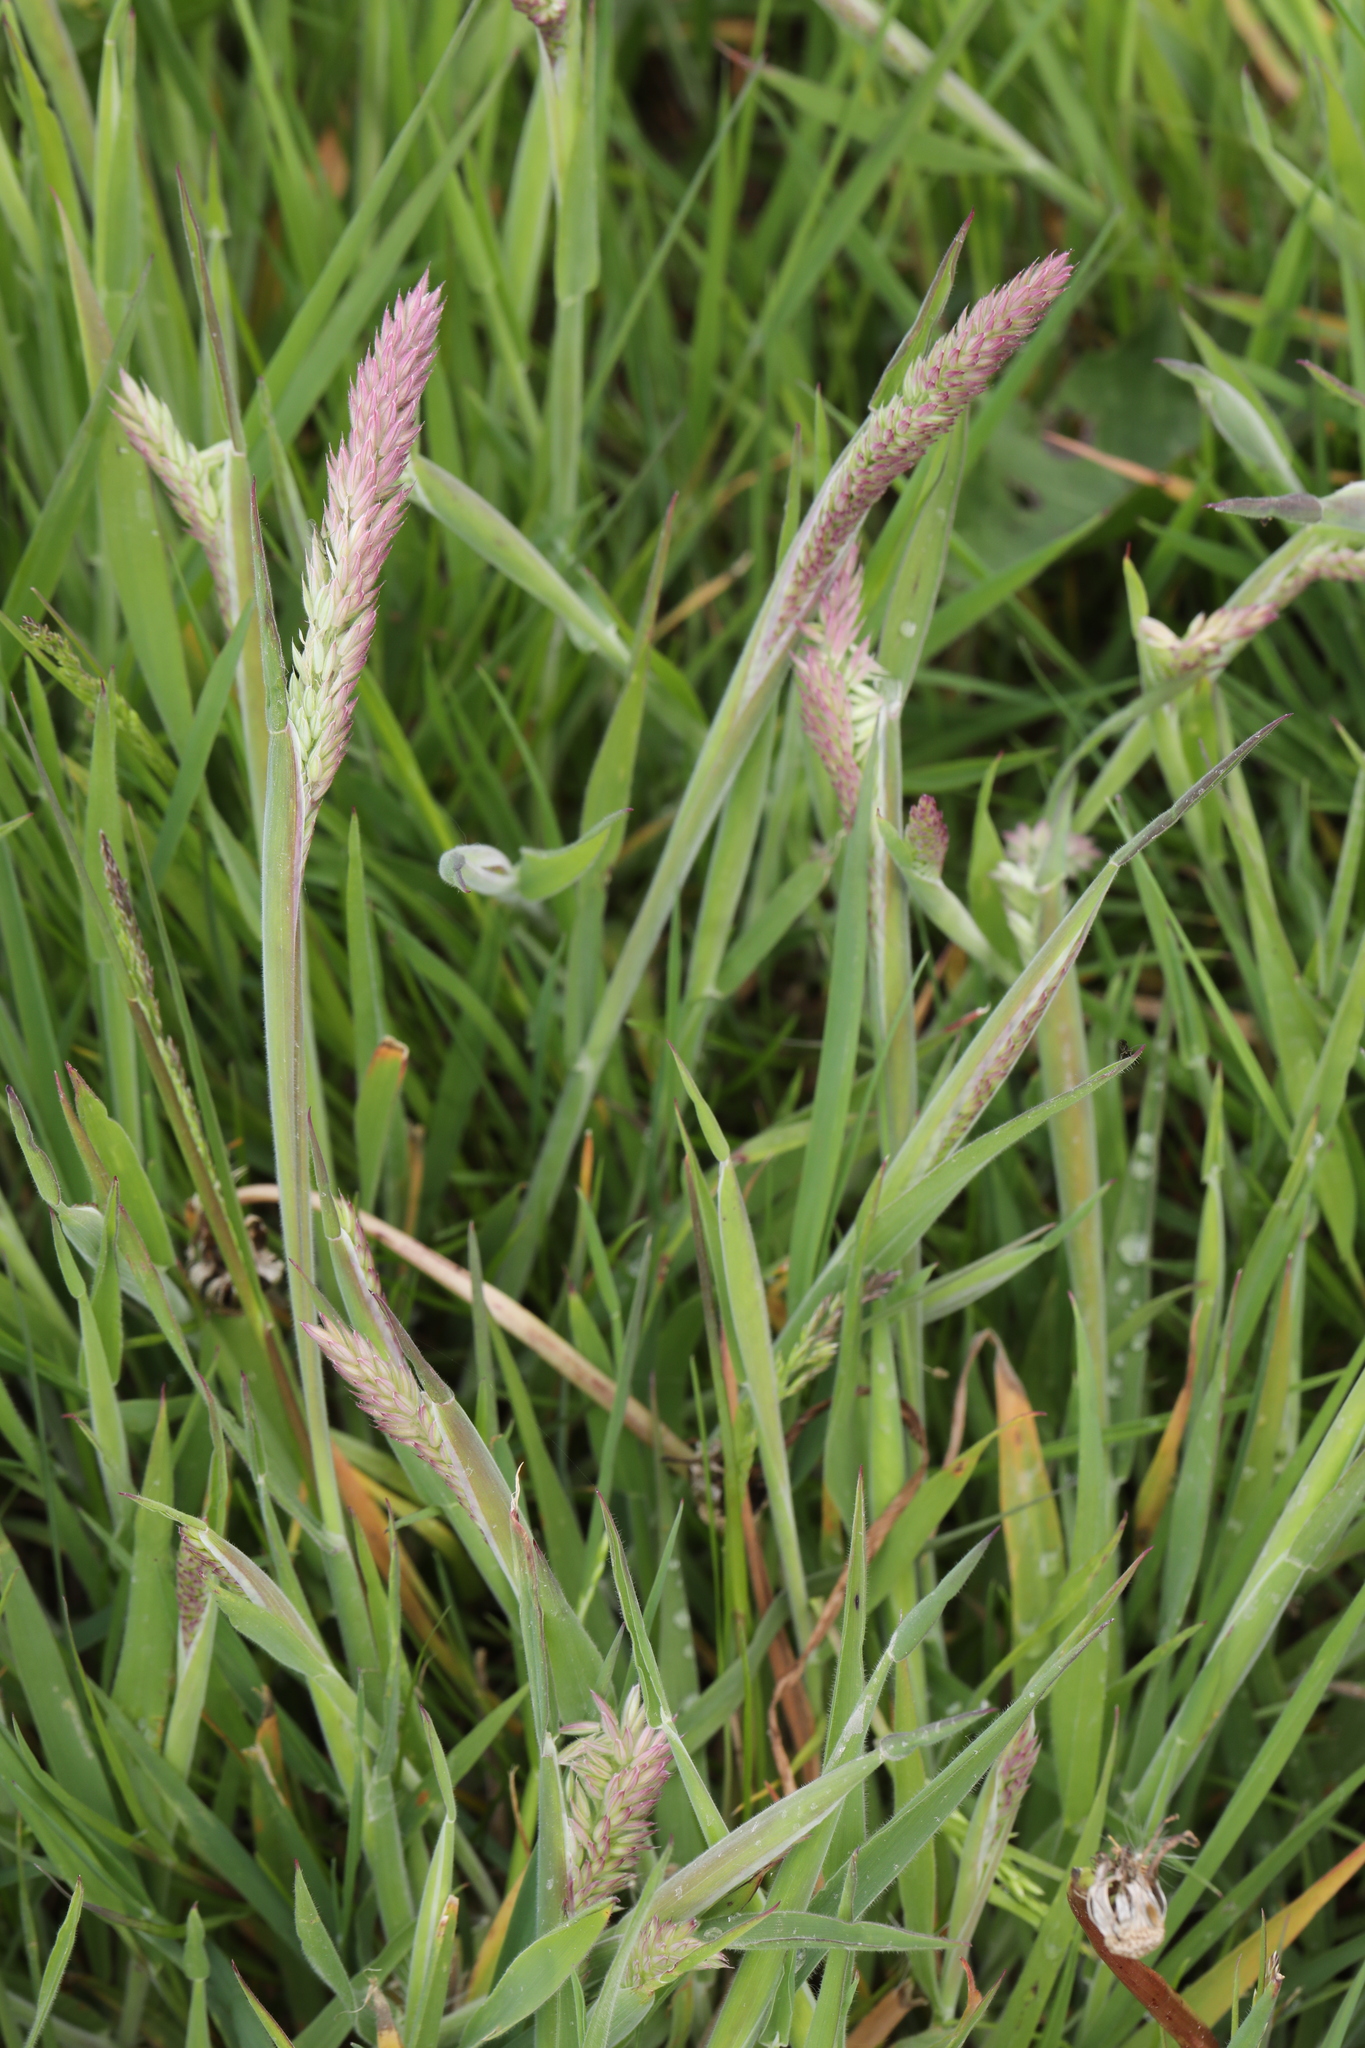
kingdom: Plantae
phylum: Tracheophyta
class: Liliopsida
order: Poales
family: Poaceae
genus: Holcus
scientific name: Holcus lanatus
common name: Yorkshire-fog
